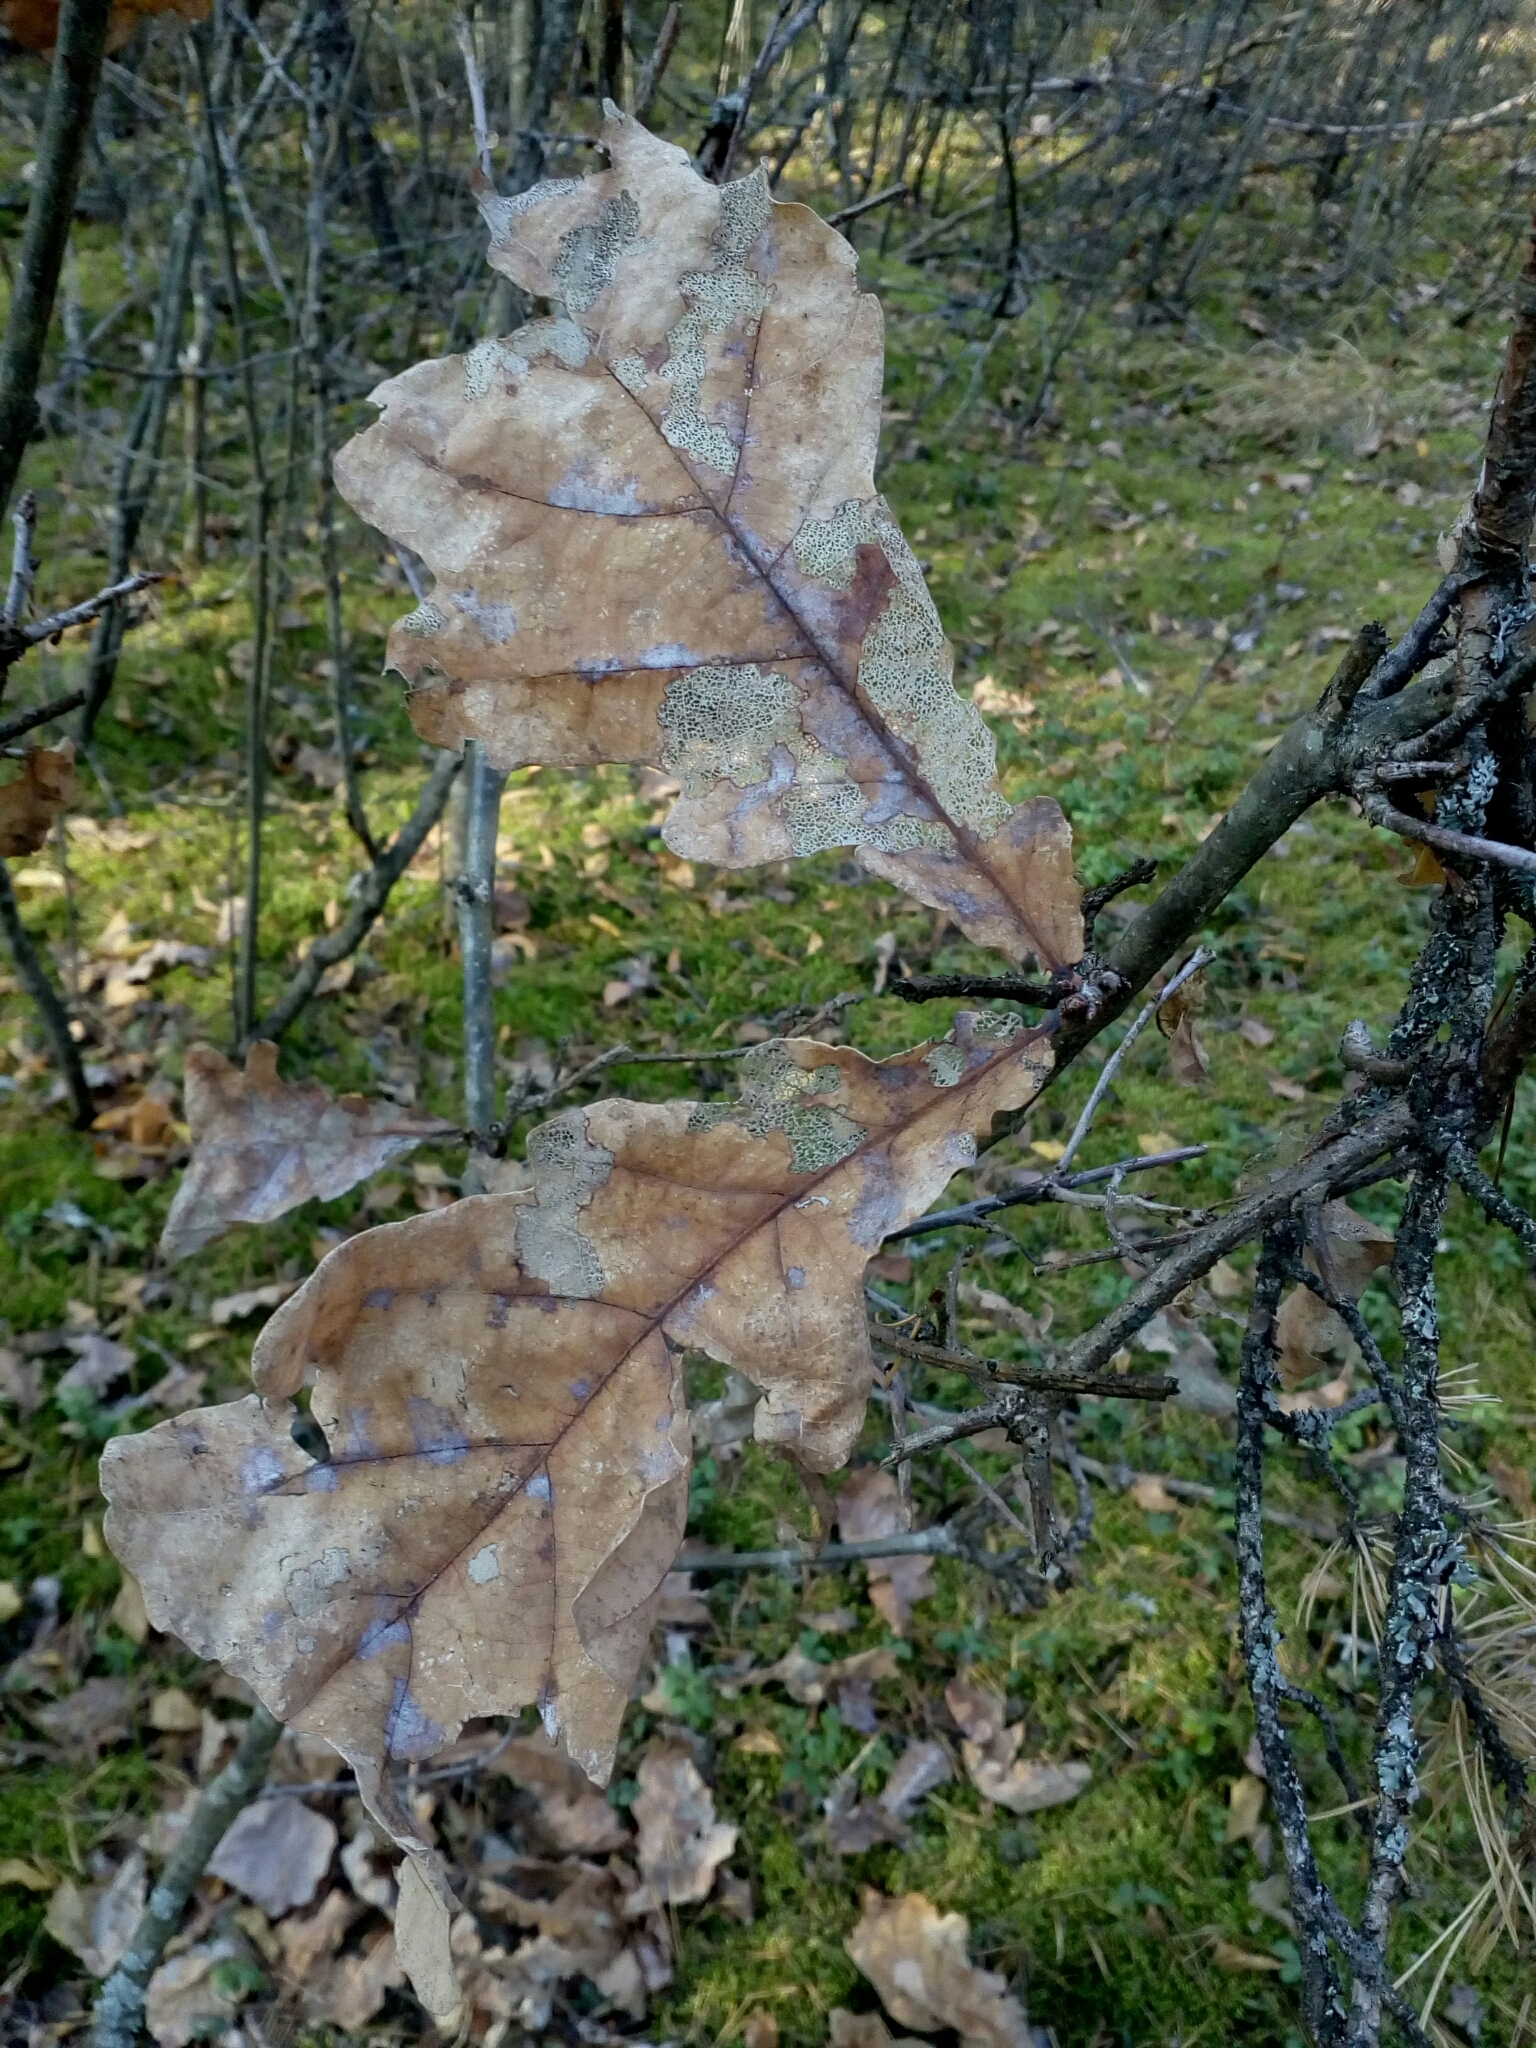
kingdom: Plantae
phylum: Tracheophyta
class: Magnoliopsida
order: Fagales
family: Fagaceae
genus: Quercus
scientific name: Quercus robur
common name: Pedunculate oak
